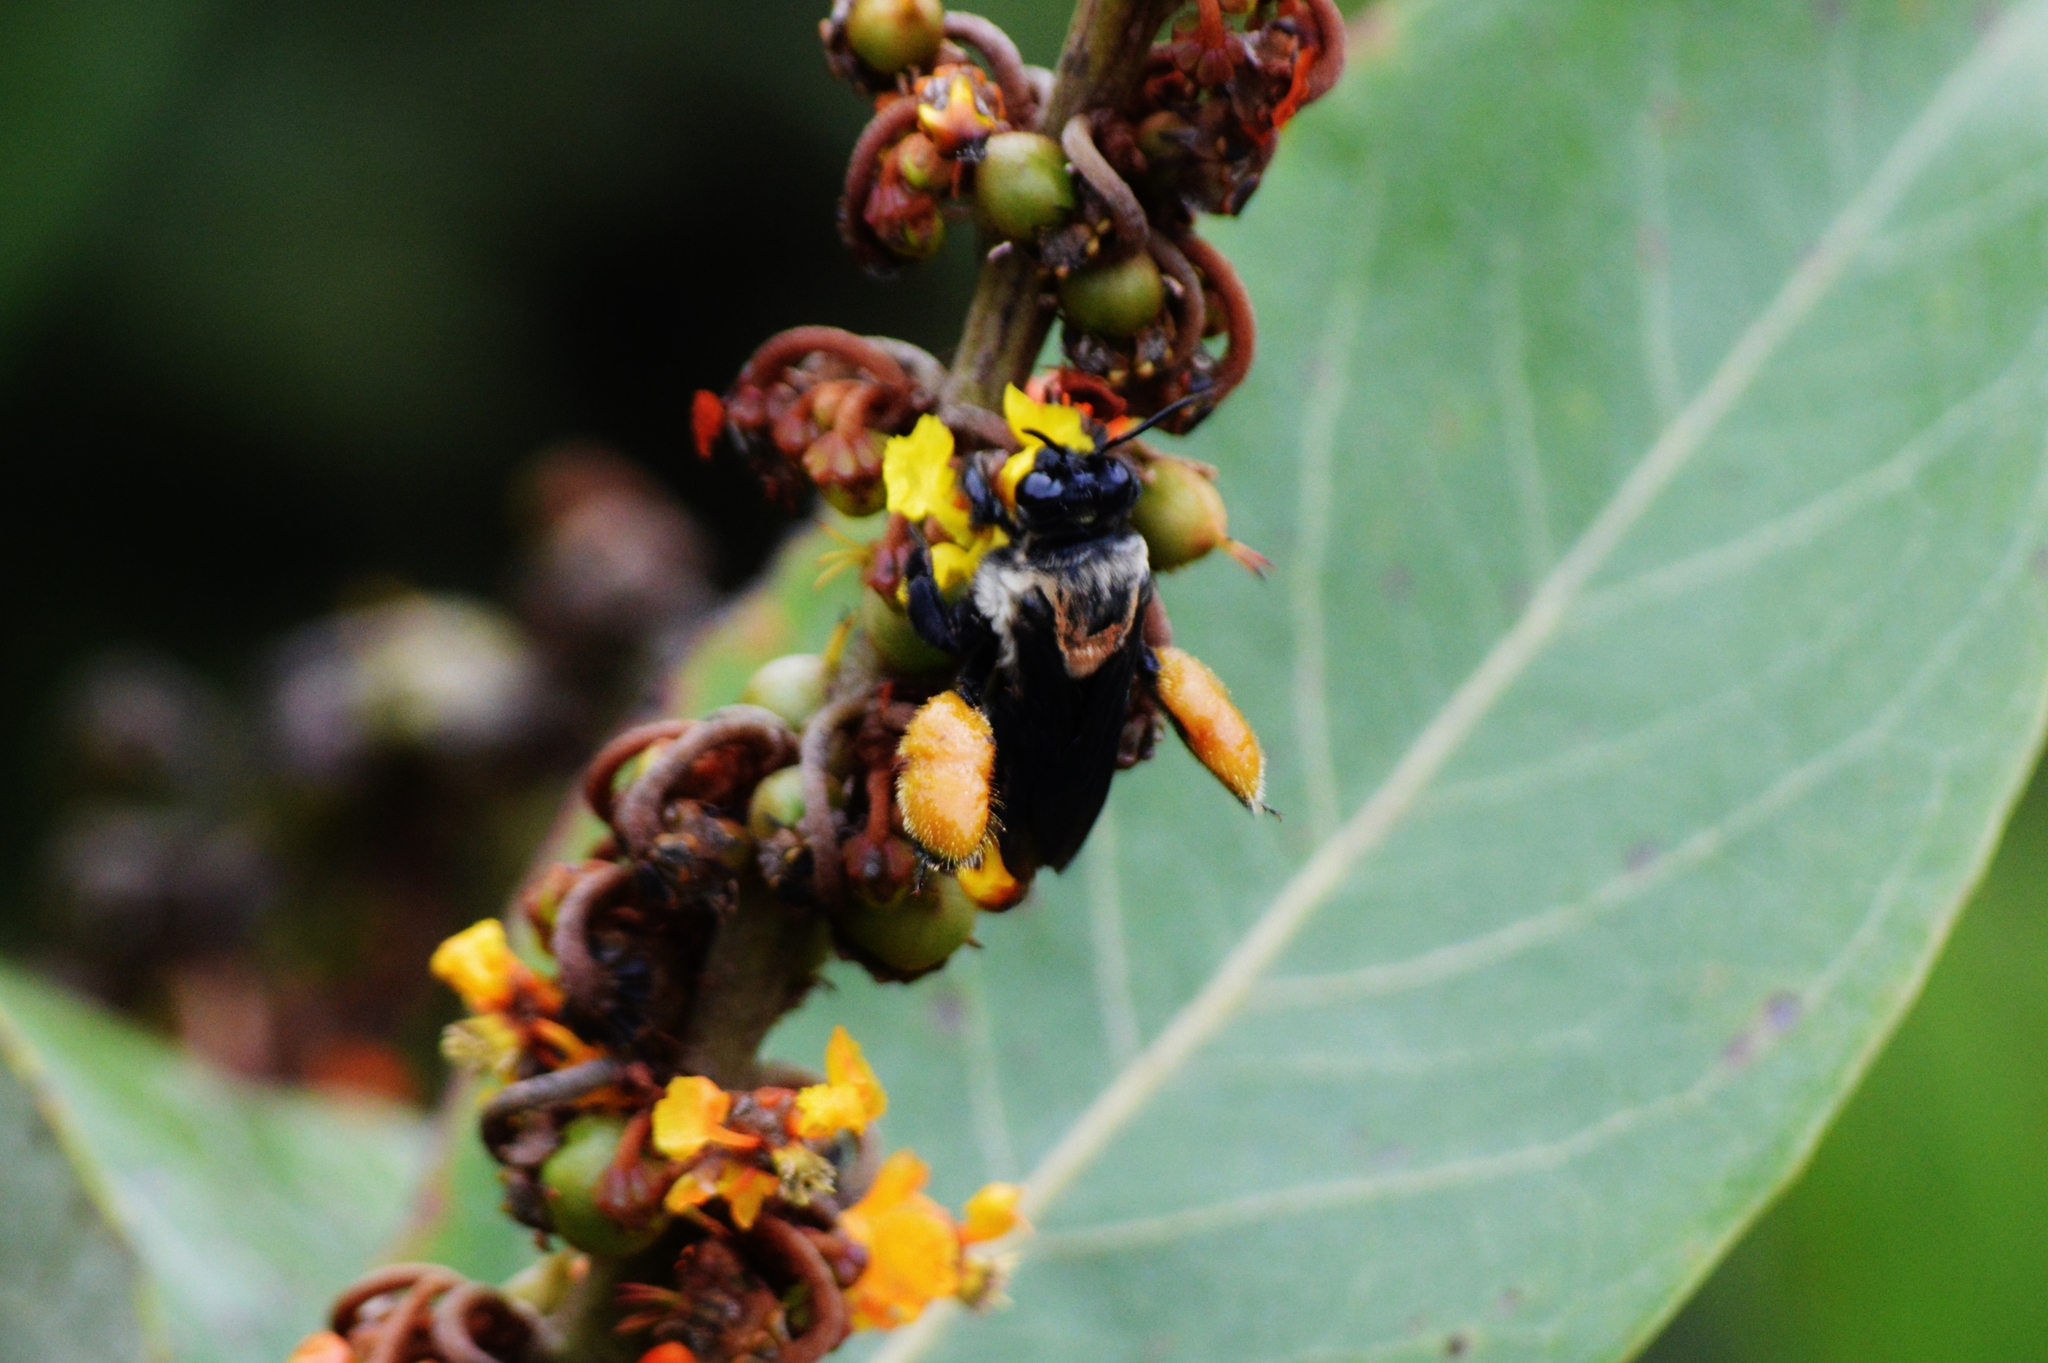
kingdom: Animalia
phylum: Arthropoda
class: Insecta
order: Hymenoptera
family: Apidae
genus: Epicharis
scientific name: Epicharis flava
